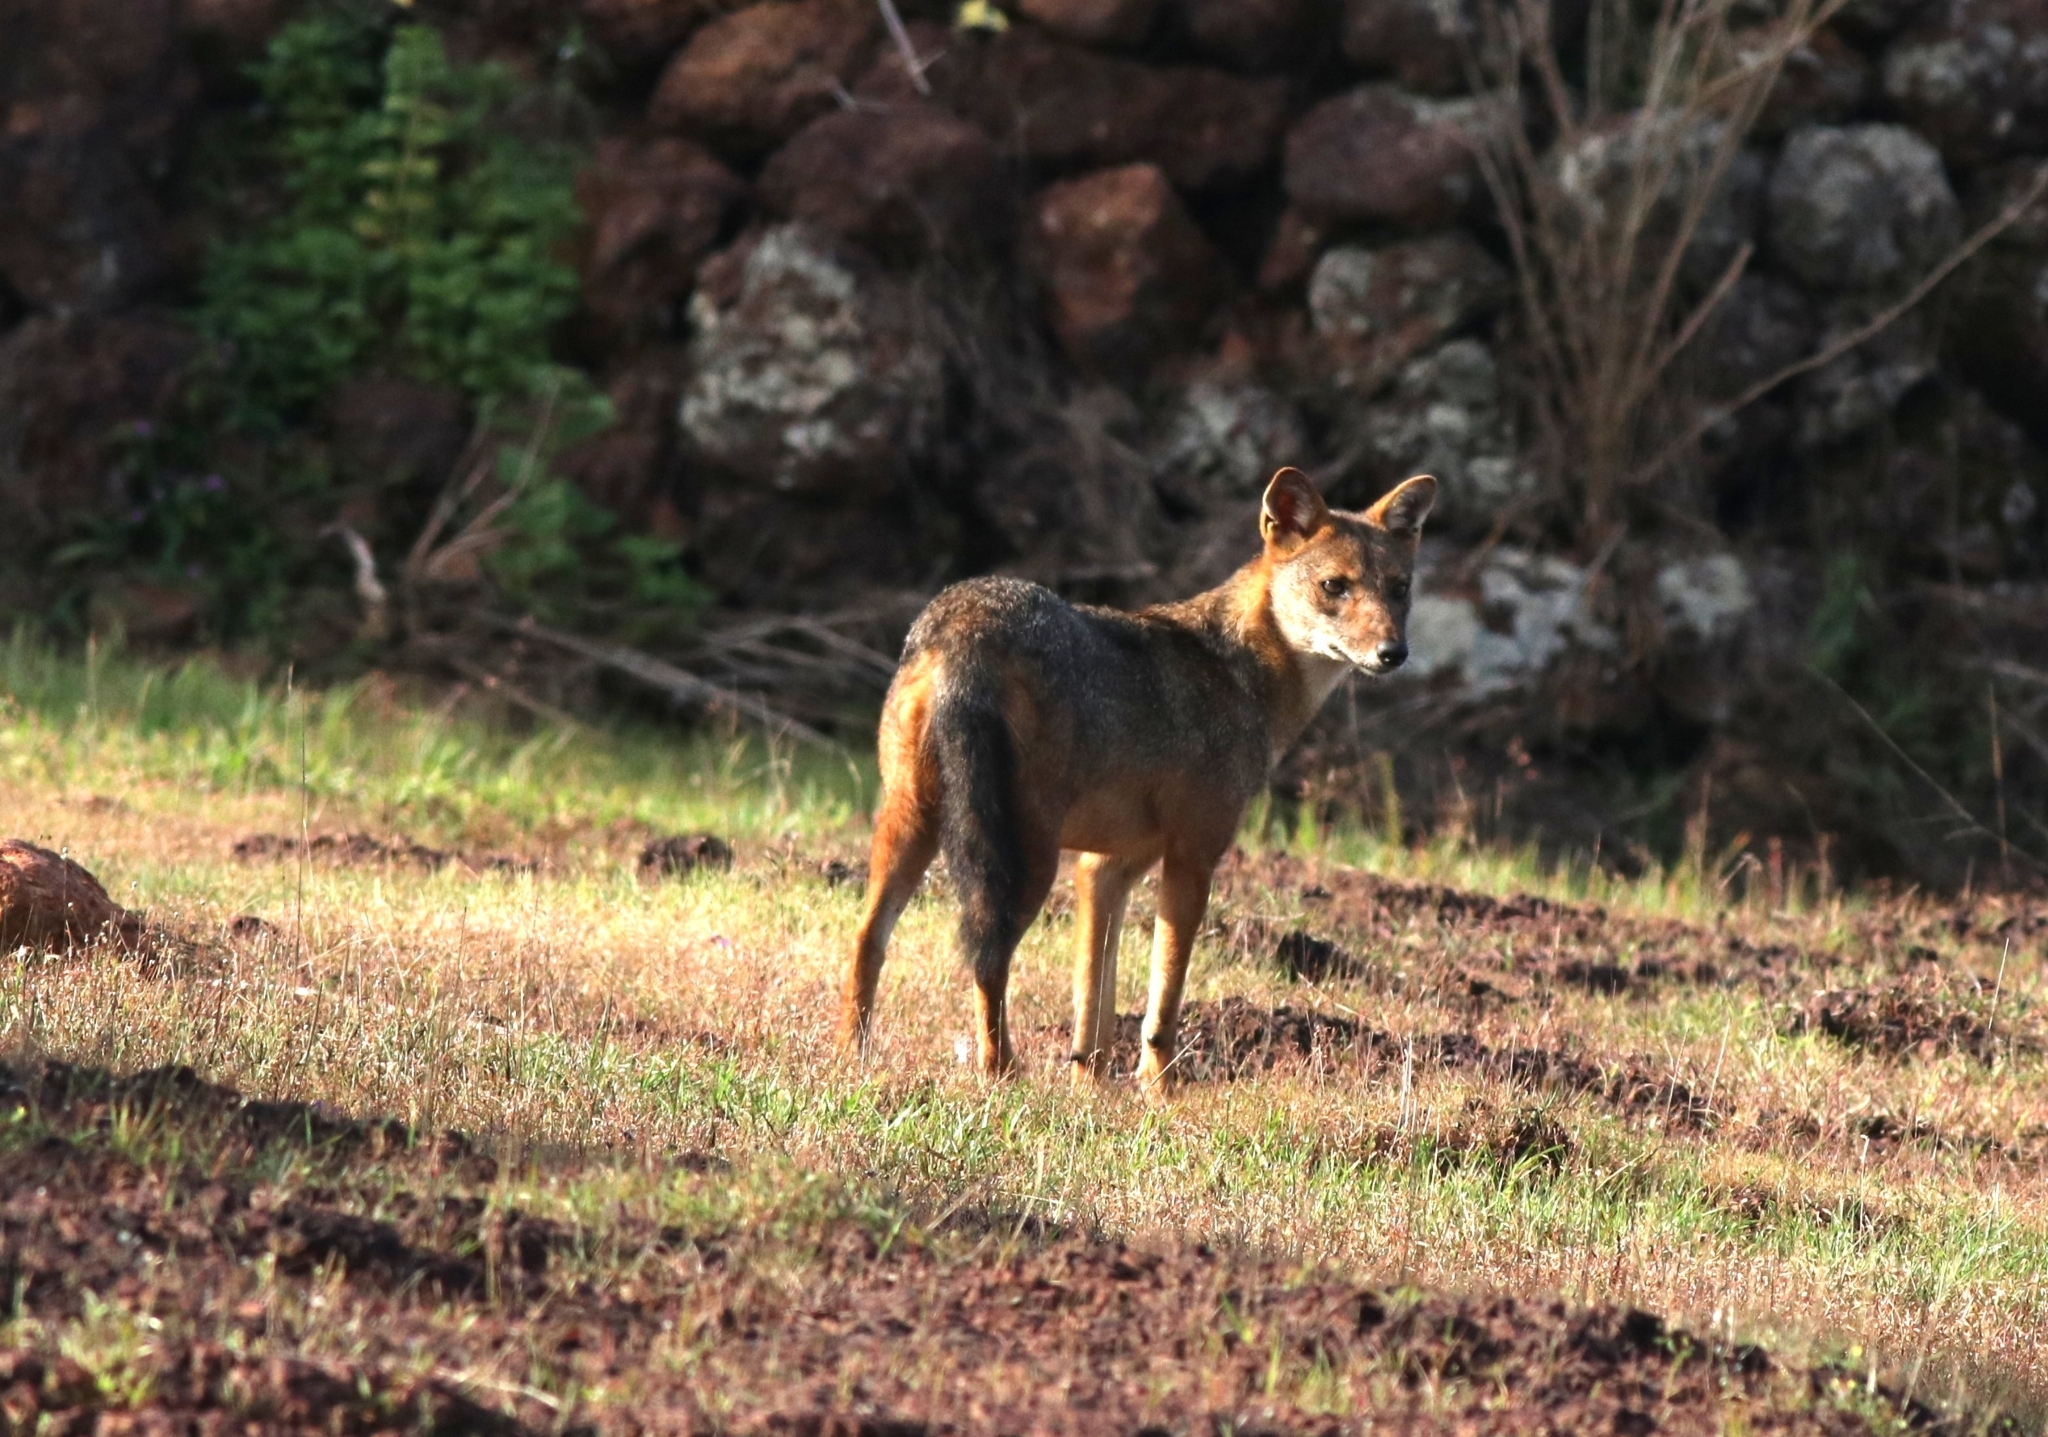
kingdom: Animalia
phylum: Chordata
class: Mammalia
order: Carnivora
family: Canidae
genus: Canis
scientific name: Canis aureus
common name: Golden jackal
